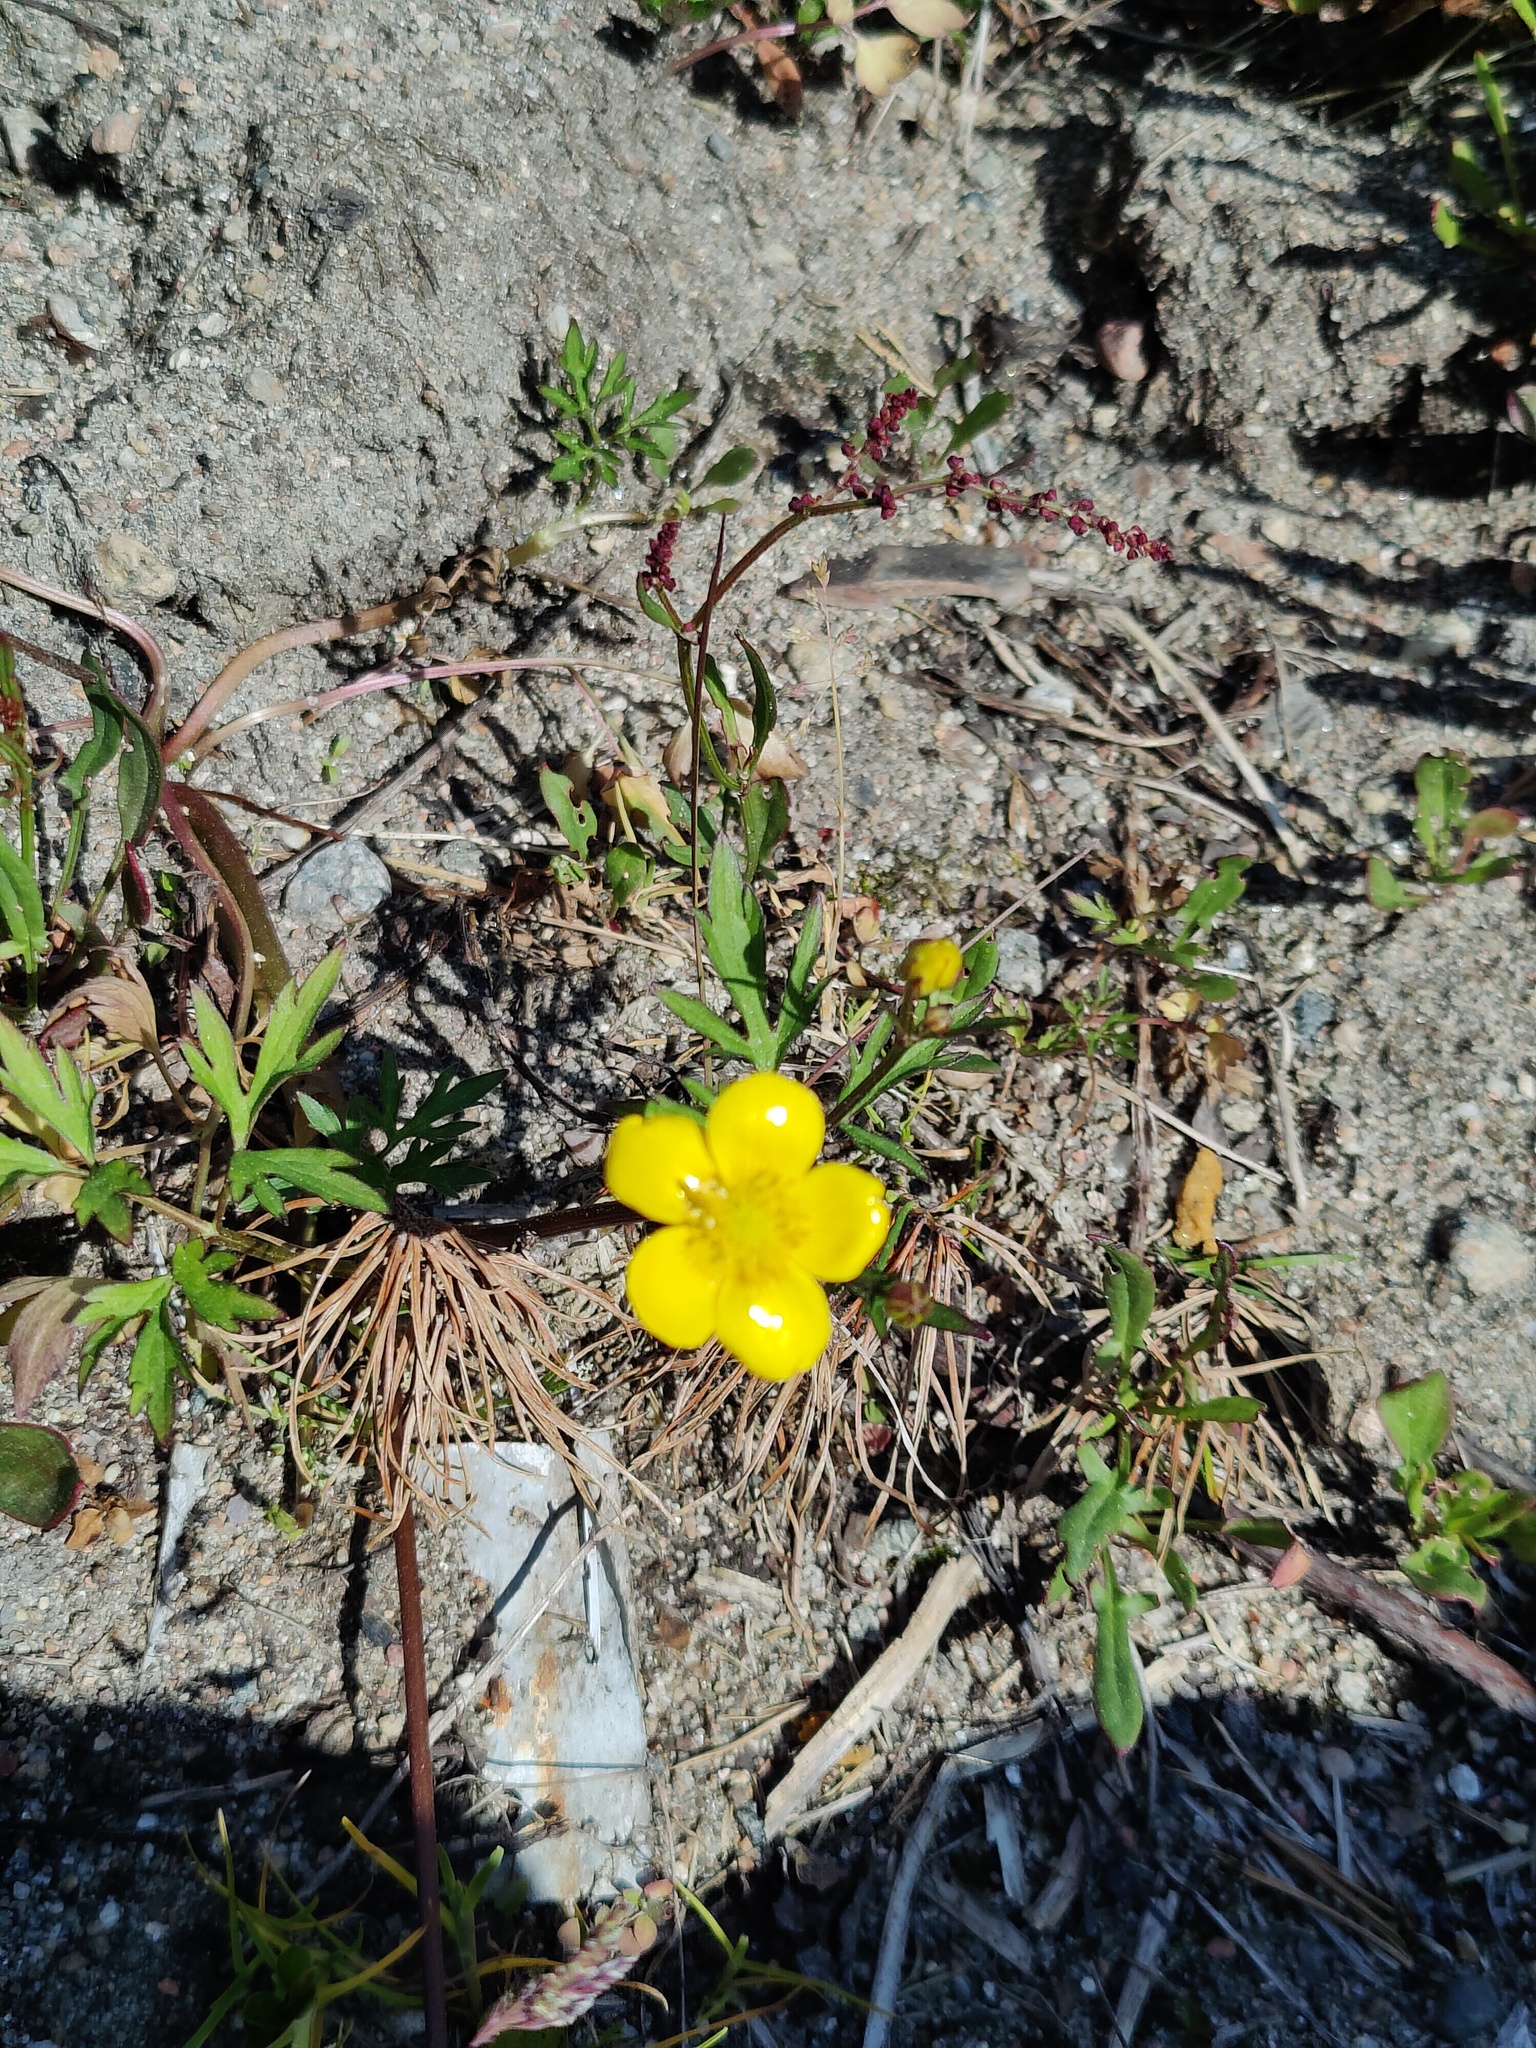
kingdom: Plantae
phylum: Tracheophyta
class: Magnoliopsida
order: Ranunculales
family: Ranunculaceae
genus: Ranunculus
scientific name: Ranunculus repens
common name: Creeping buttercup
